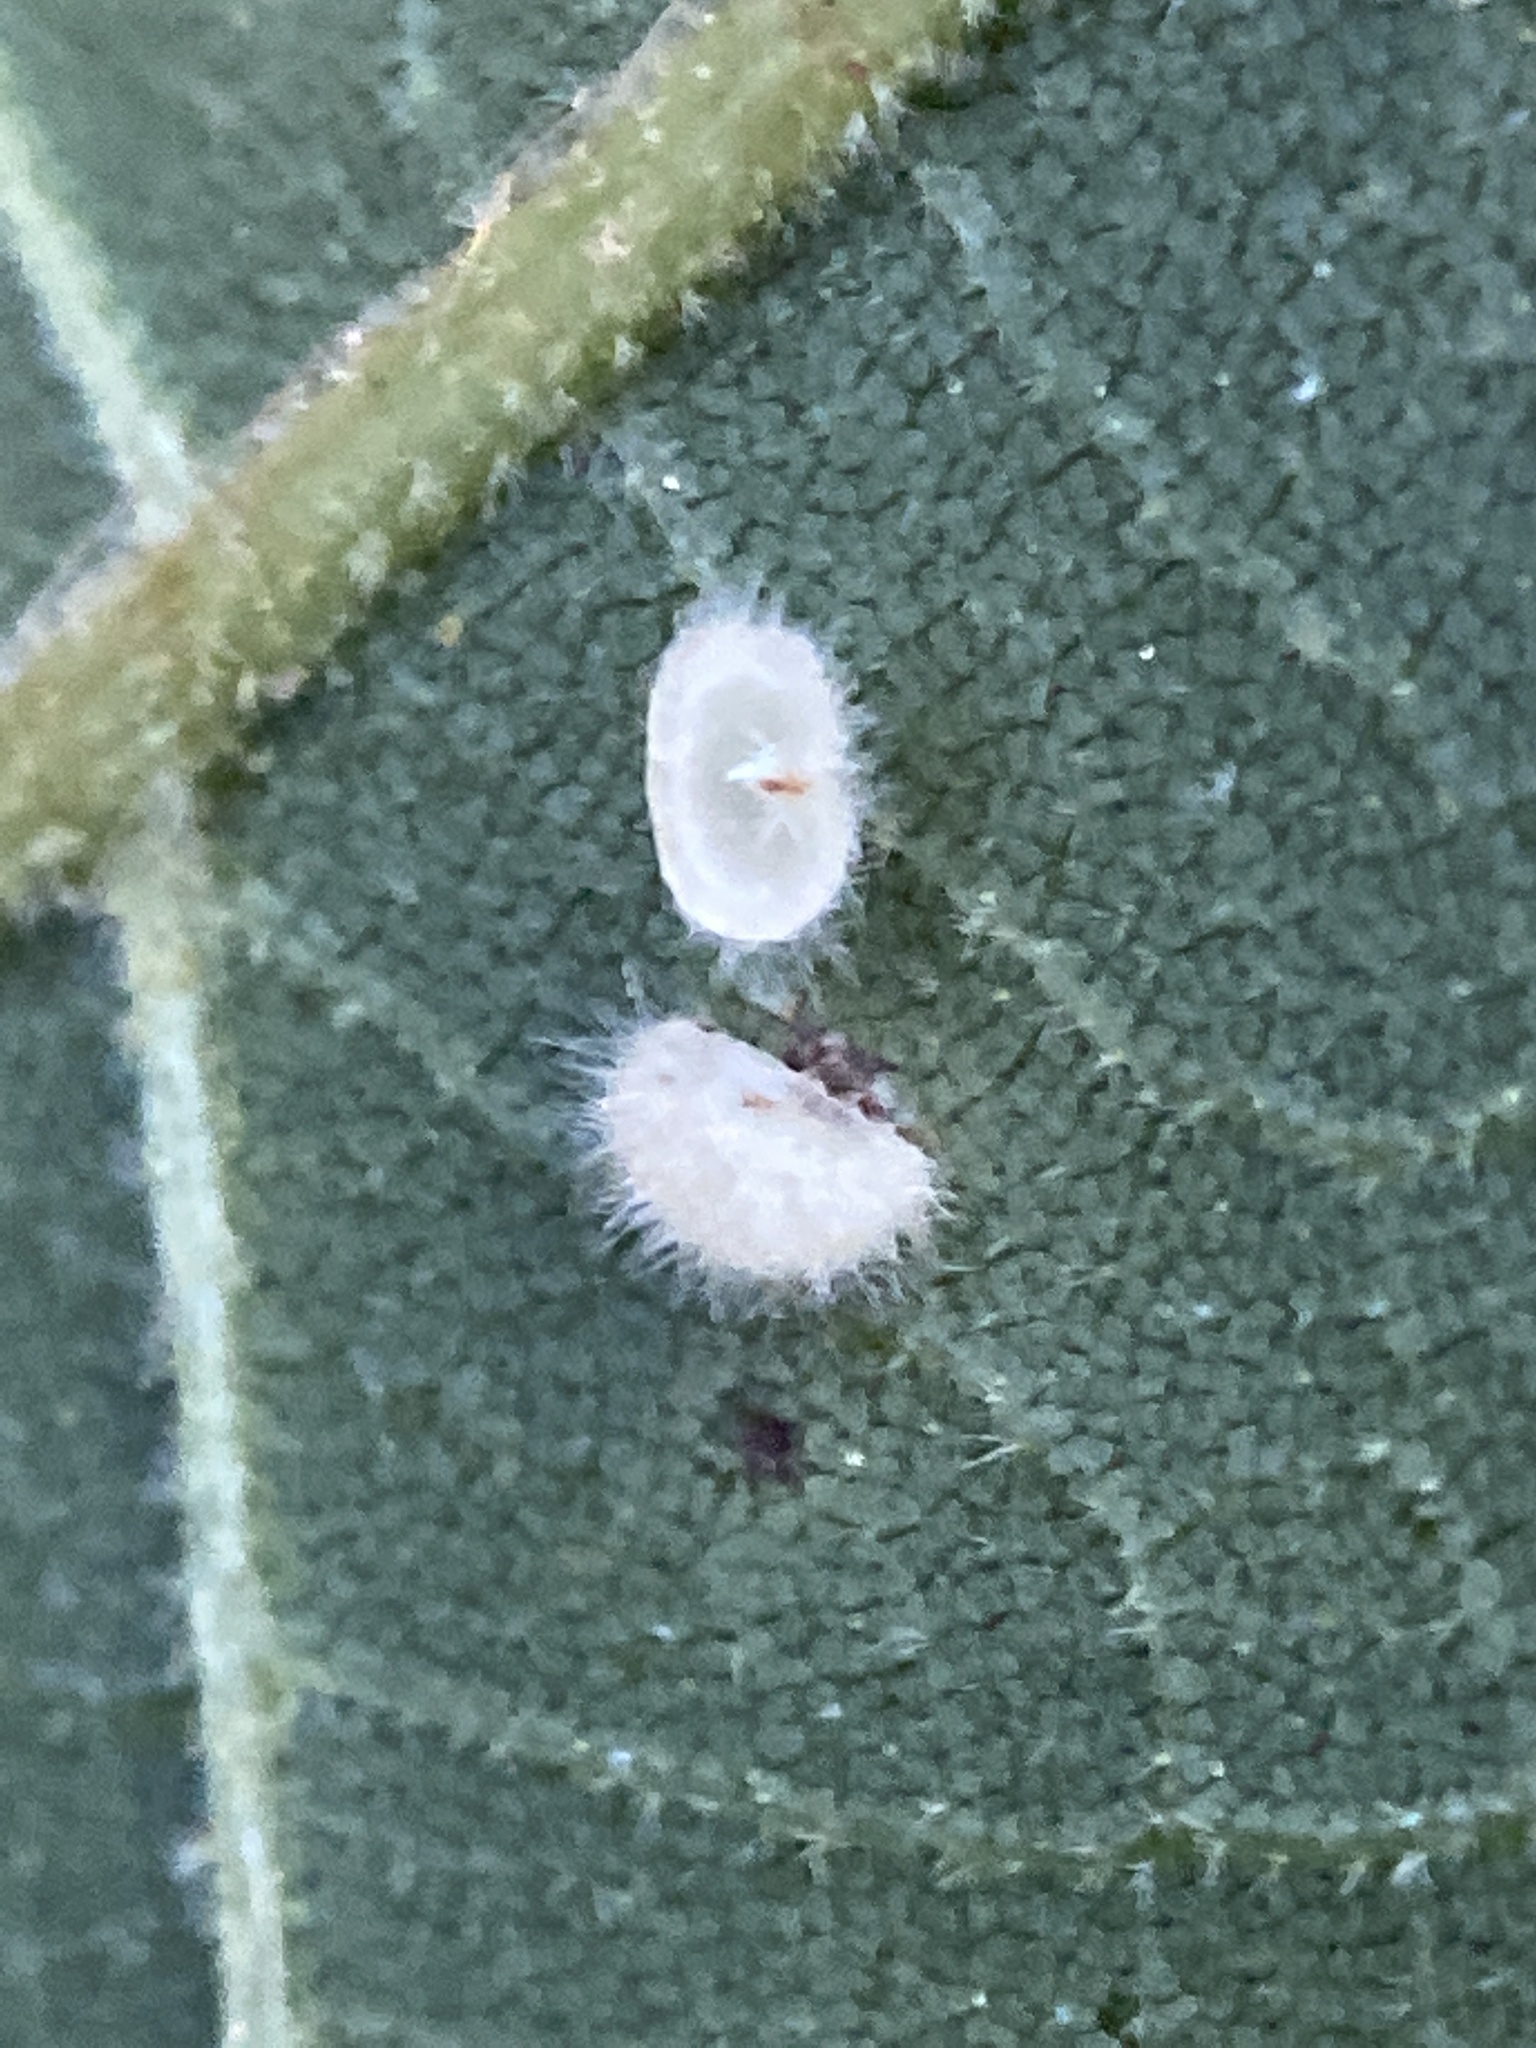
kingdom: Animalia
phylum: Arthropoda
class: Insecta
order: Diptera
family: Cecidomyiidae
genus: Caryomyia
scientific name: Caryomyia thompsoni
